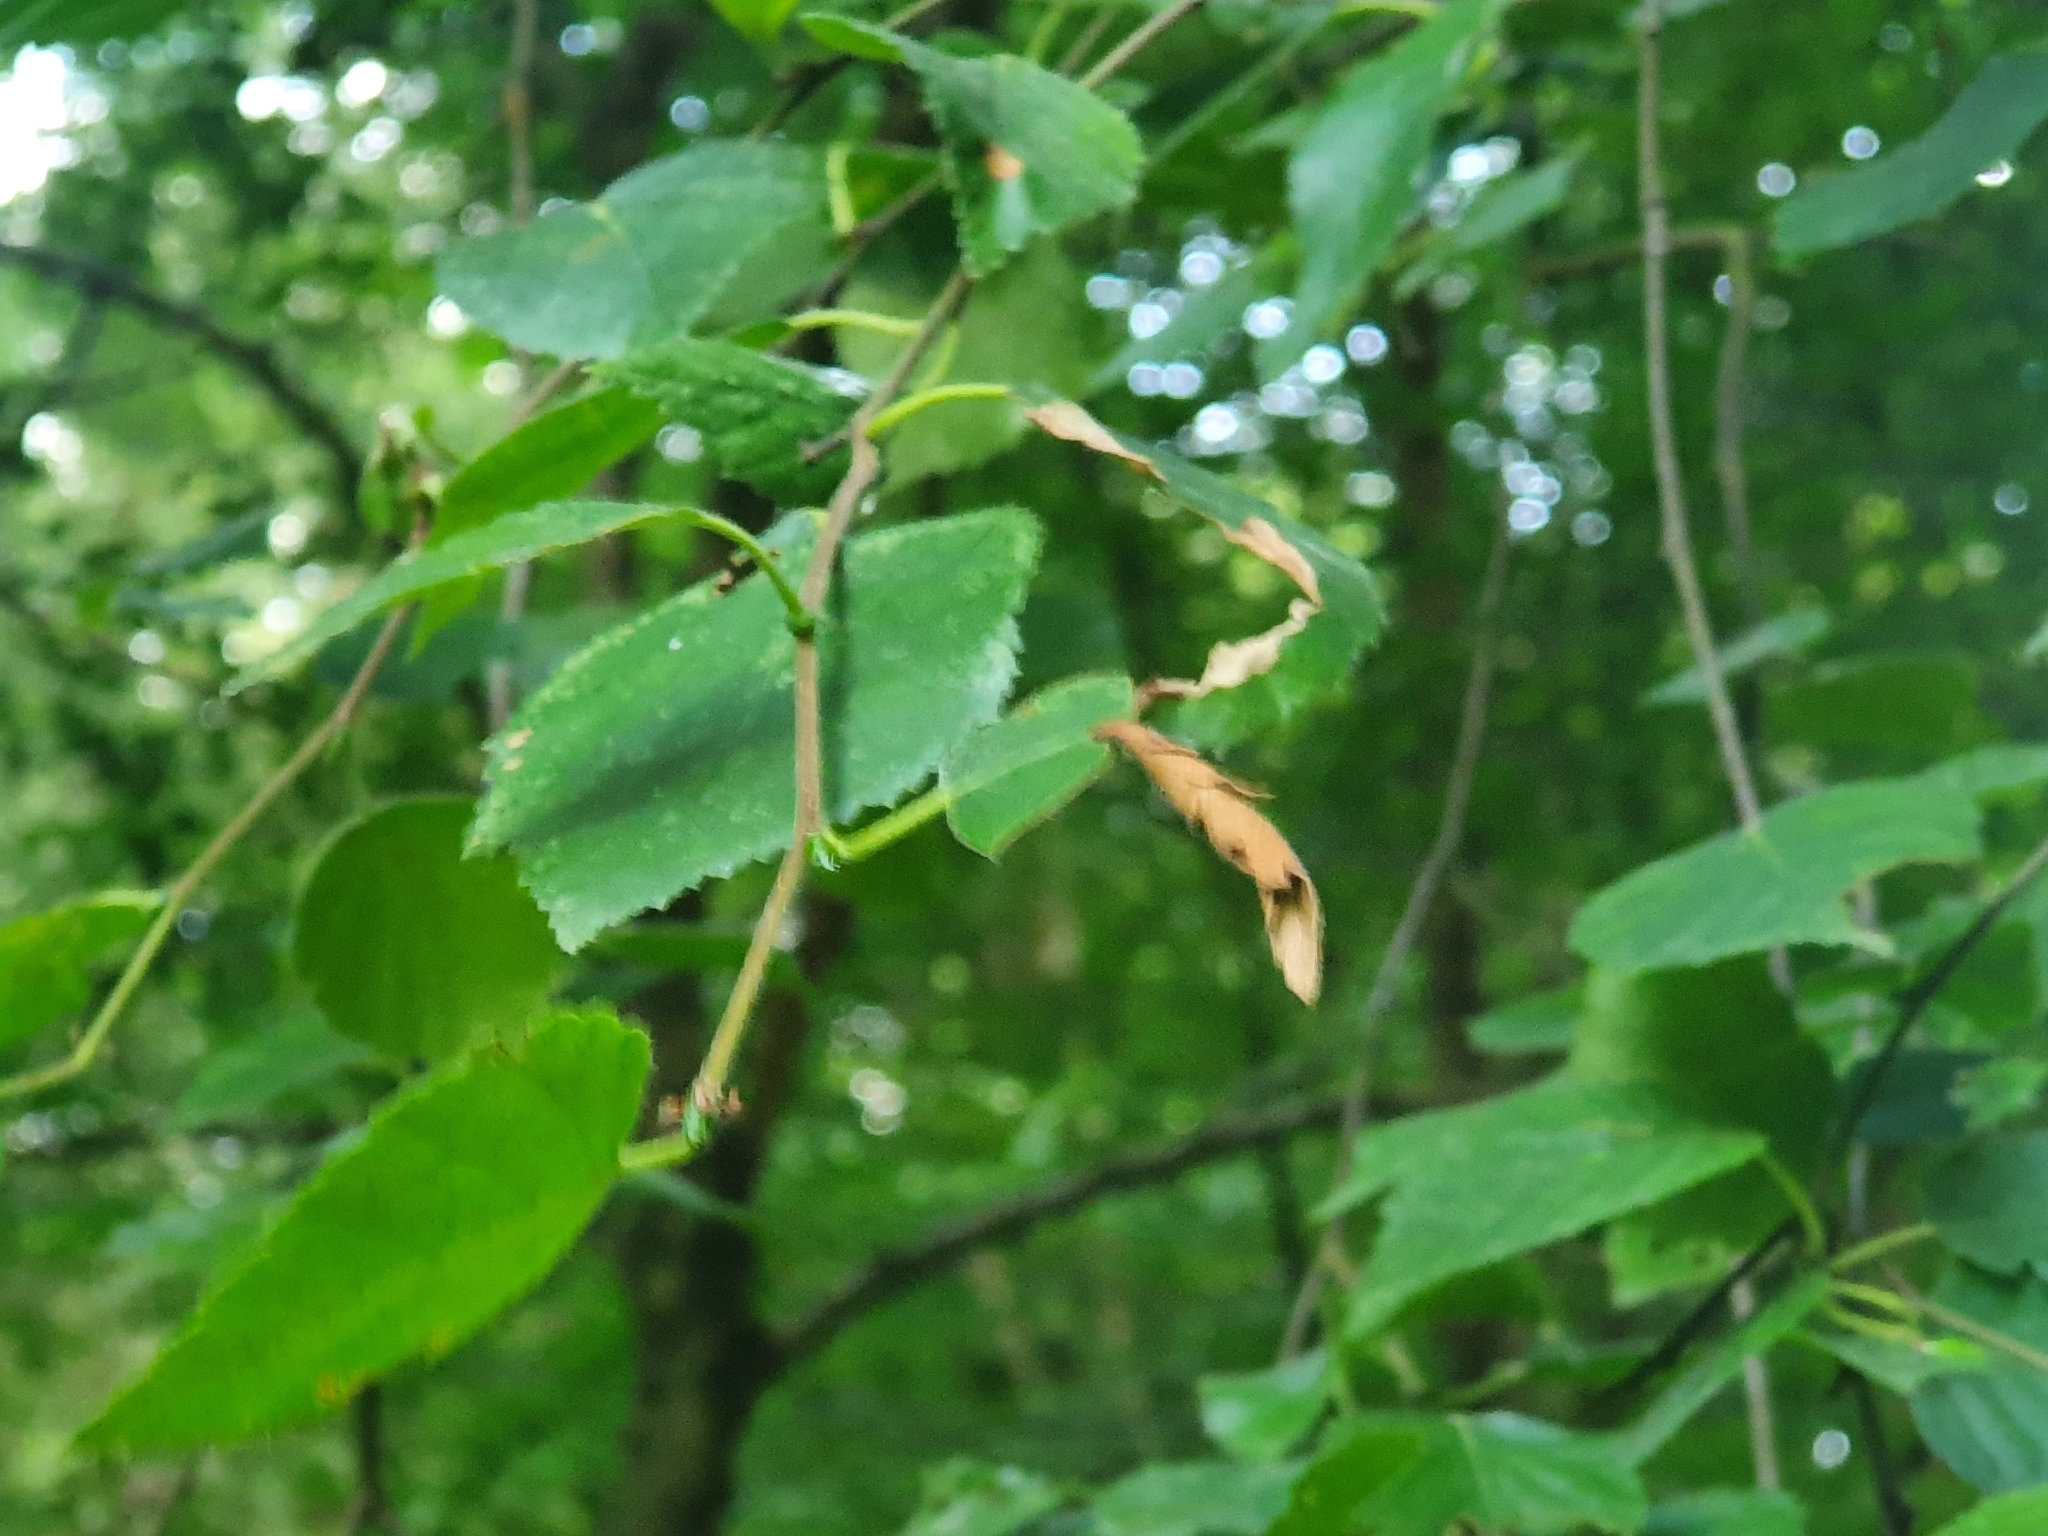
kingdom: Animalia
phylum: Arthropoda
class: Insecta
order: Coleoptera
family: Attelabidae
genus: Deporaus
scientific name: Deporaus betulae
